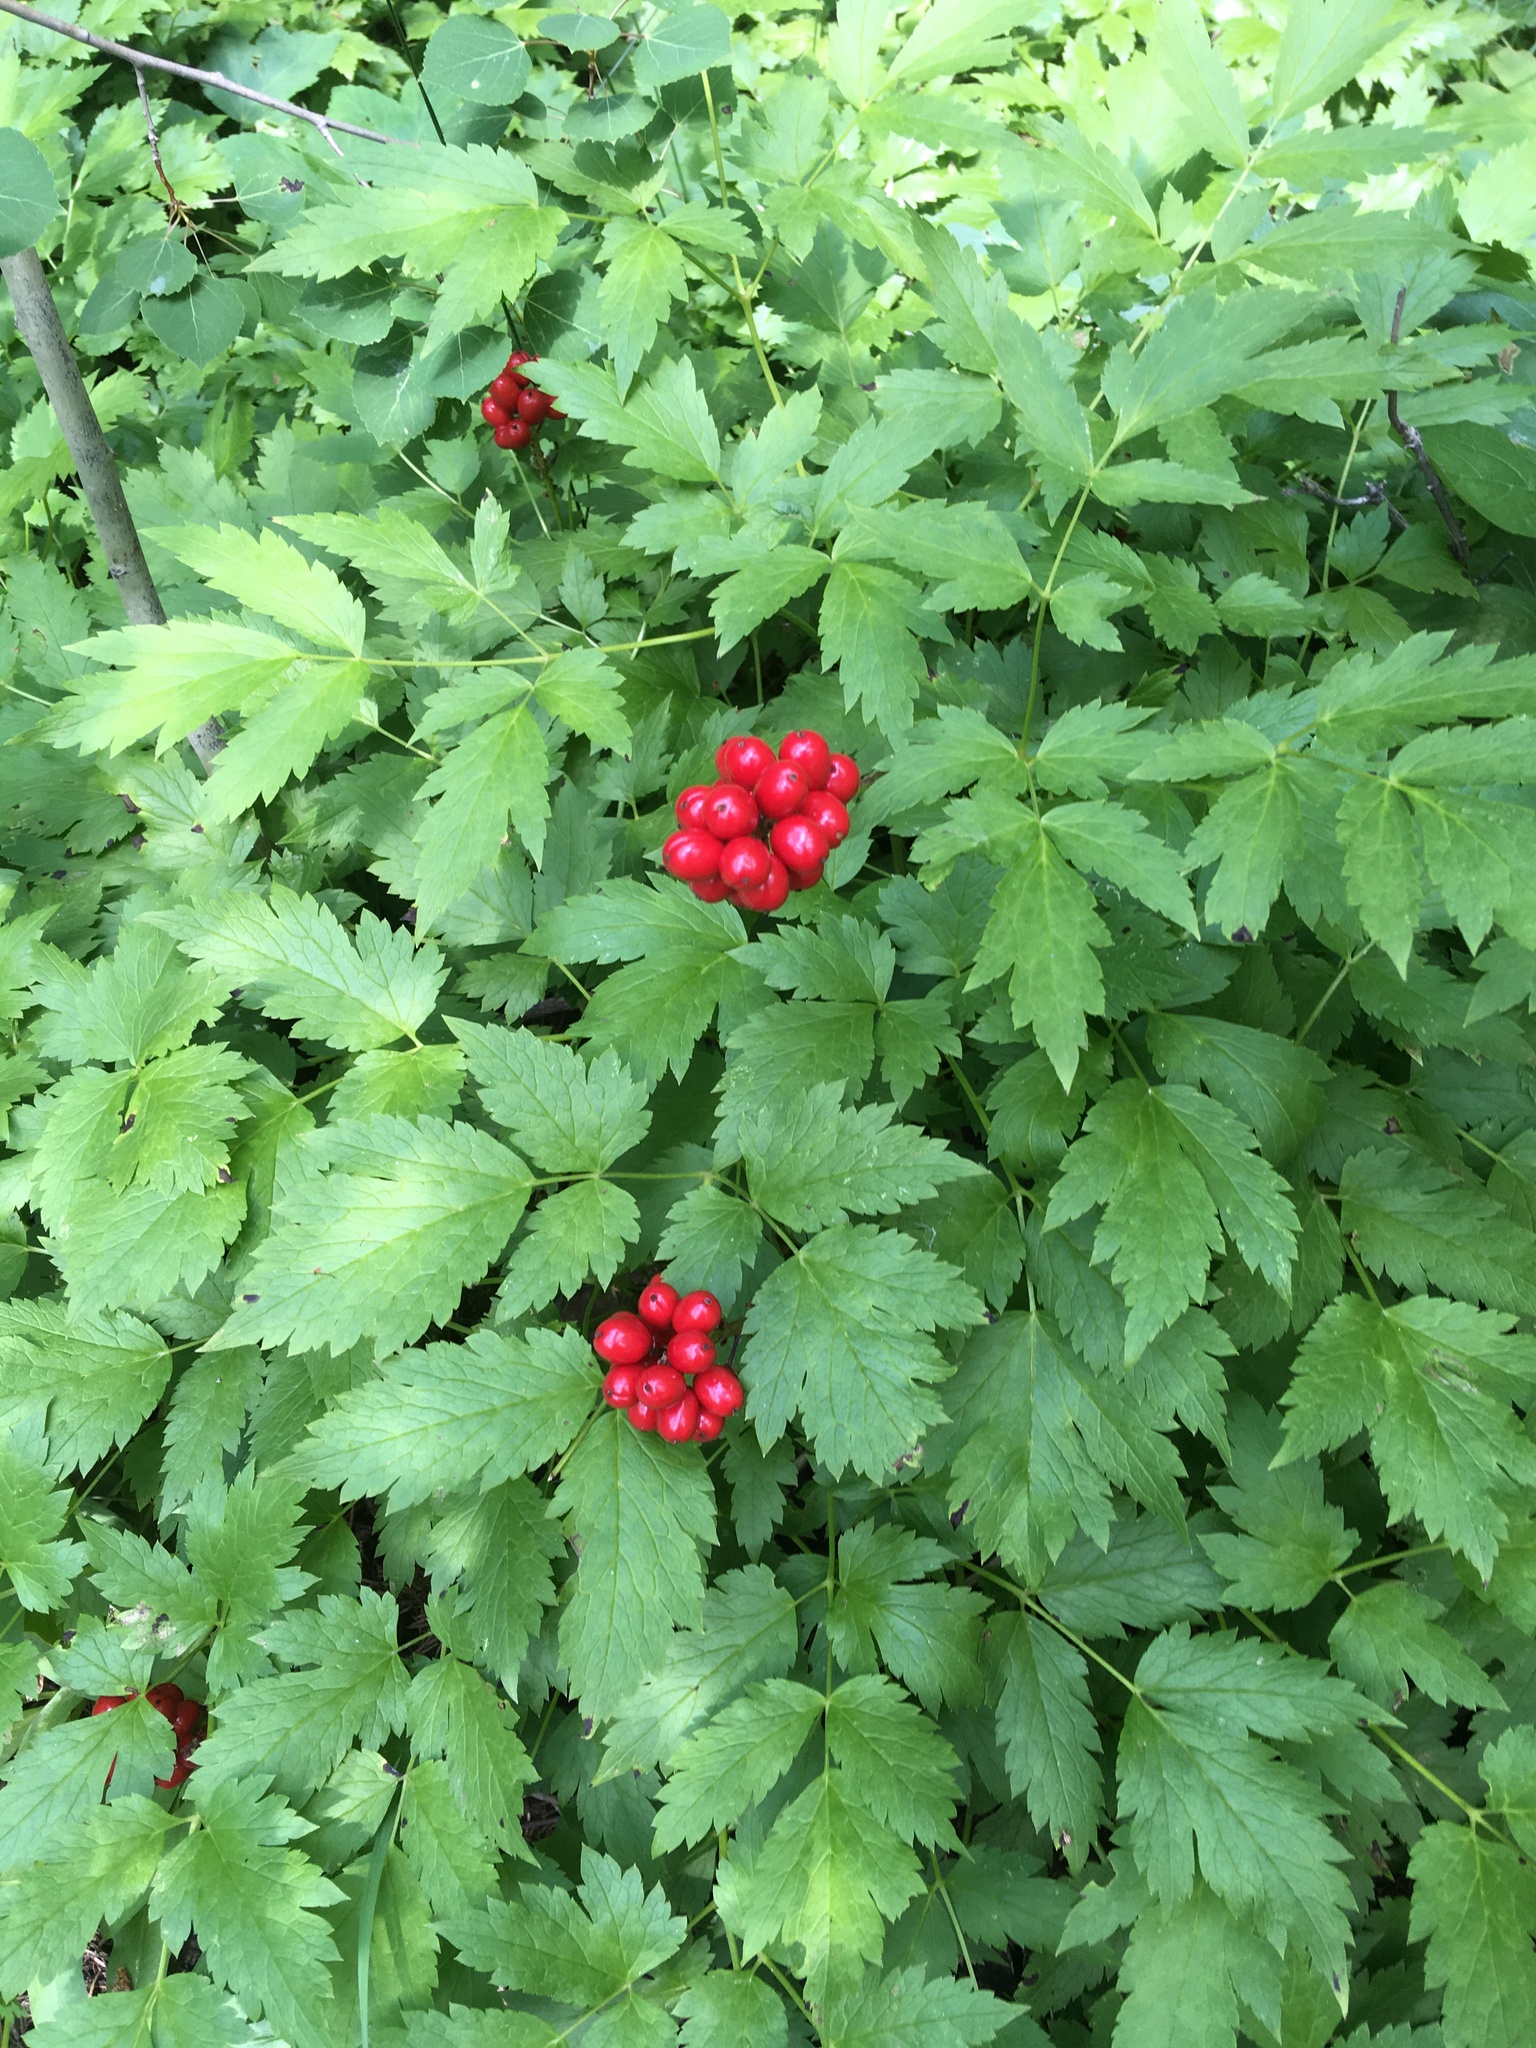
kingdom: Plantae
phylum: Tracheophyta
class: Magnoliopsida
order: Ranunculales
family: Ranunculaceae
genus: Actaea
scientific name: Actaea rubra
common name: Red baneberry
